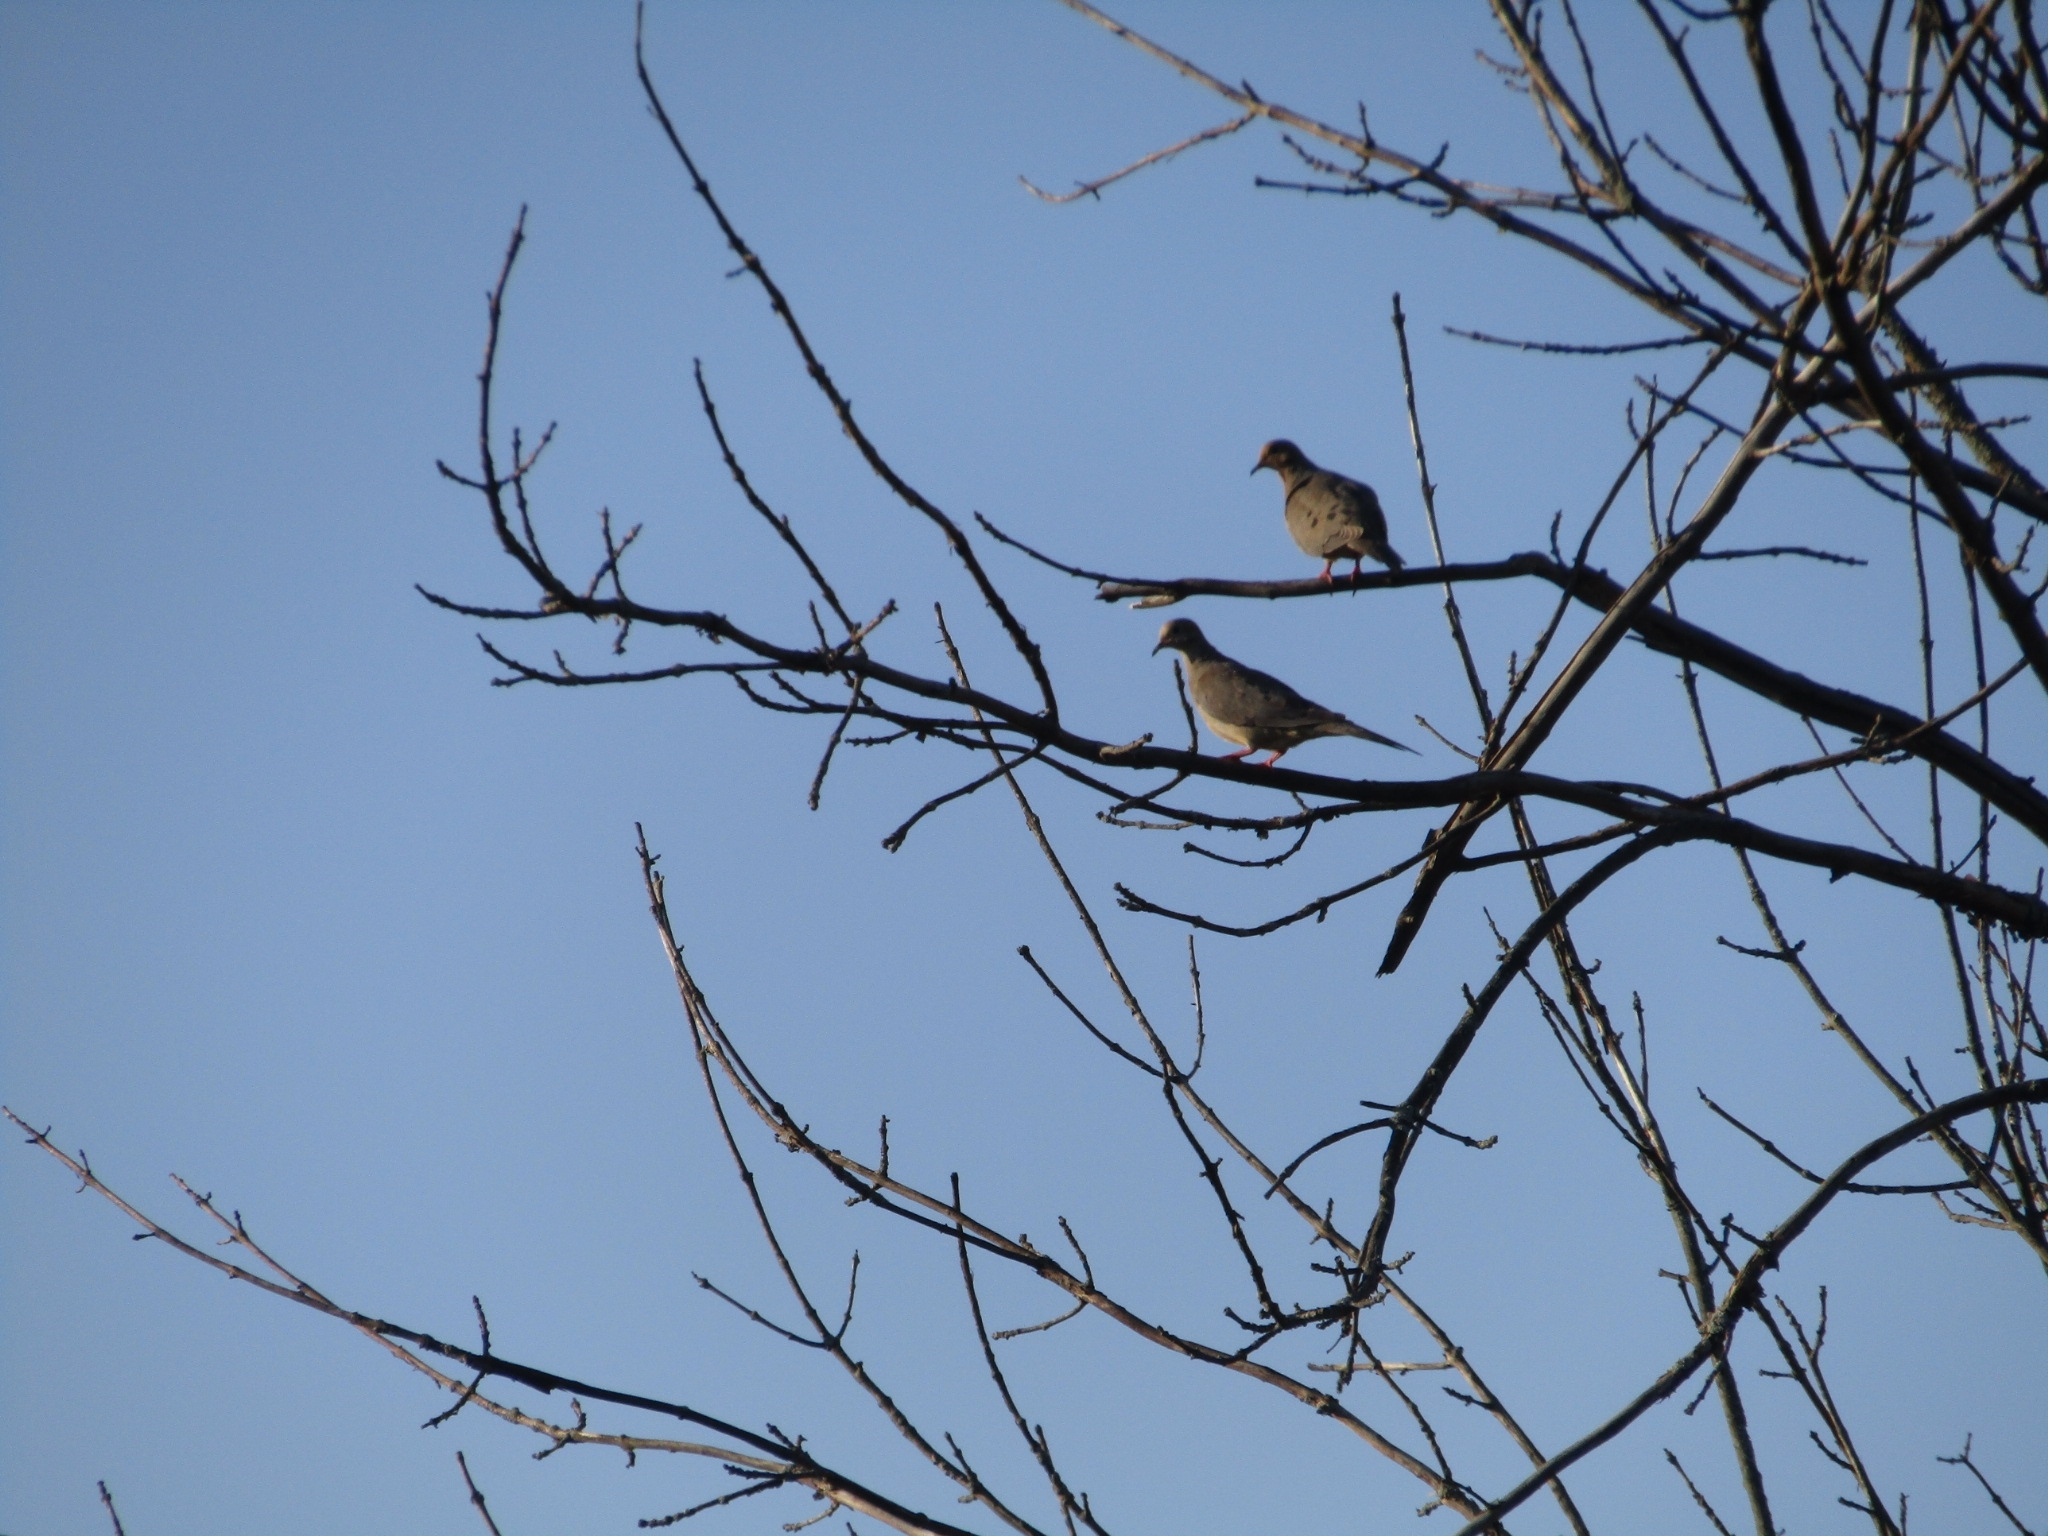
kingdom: Animalia
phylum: Chordata
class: Aves
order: Columbiformes
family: Columbidae
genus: Zenaida
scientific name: Zenaida macroura
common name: Mourning dove
